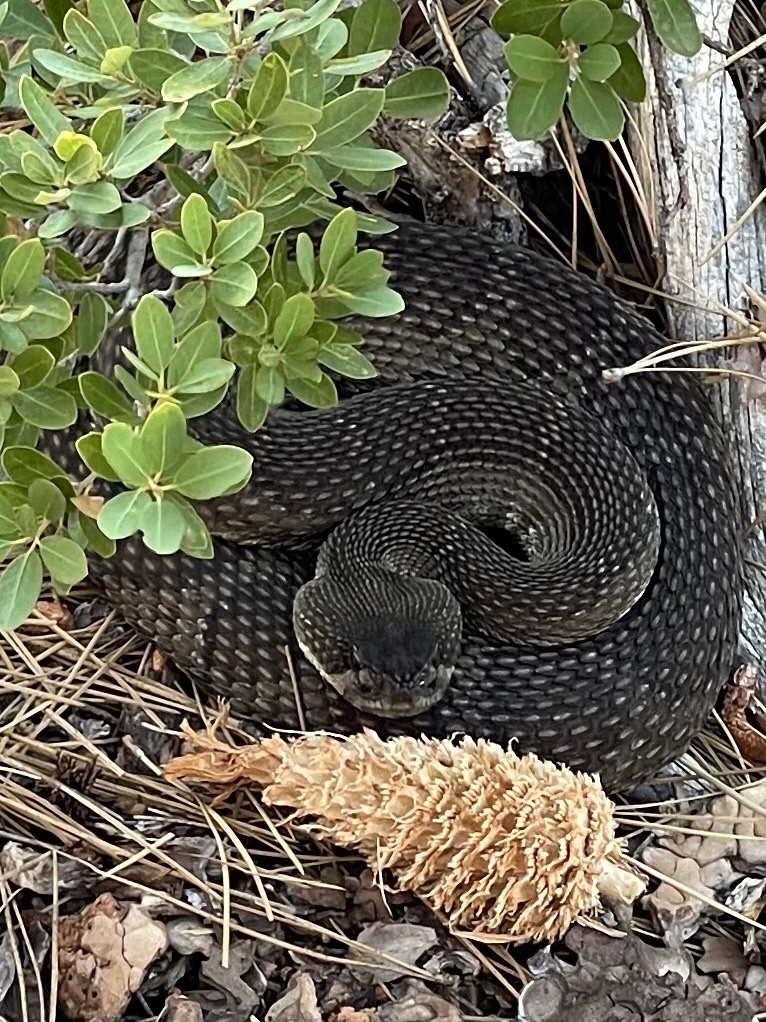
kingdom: Animalia
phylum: Chordata
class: Squamata
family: Viperidae
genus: Crotalus
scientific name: Crotalus oreganus
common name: Abyssus
